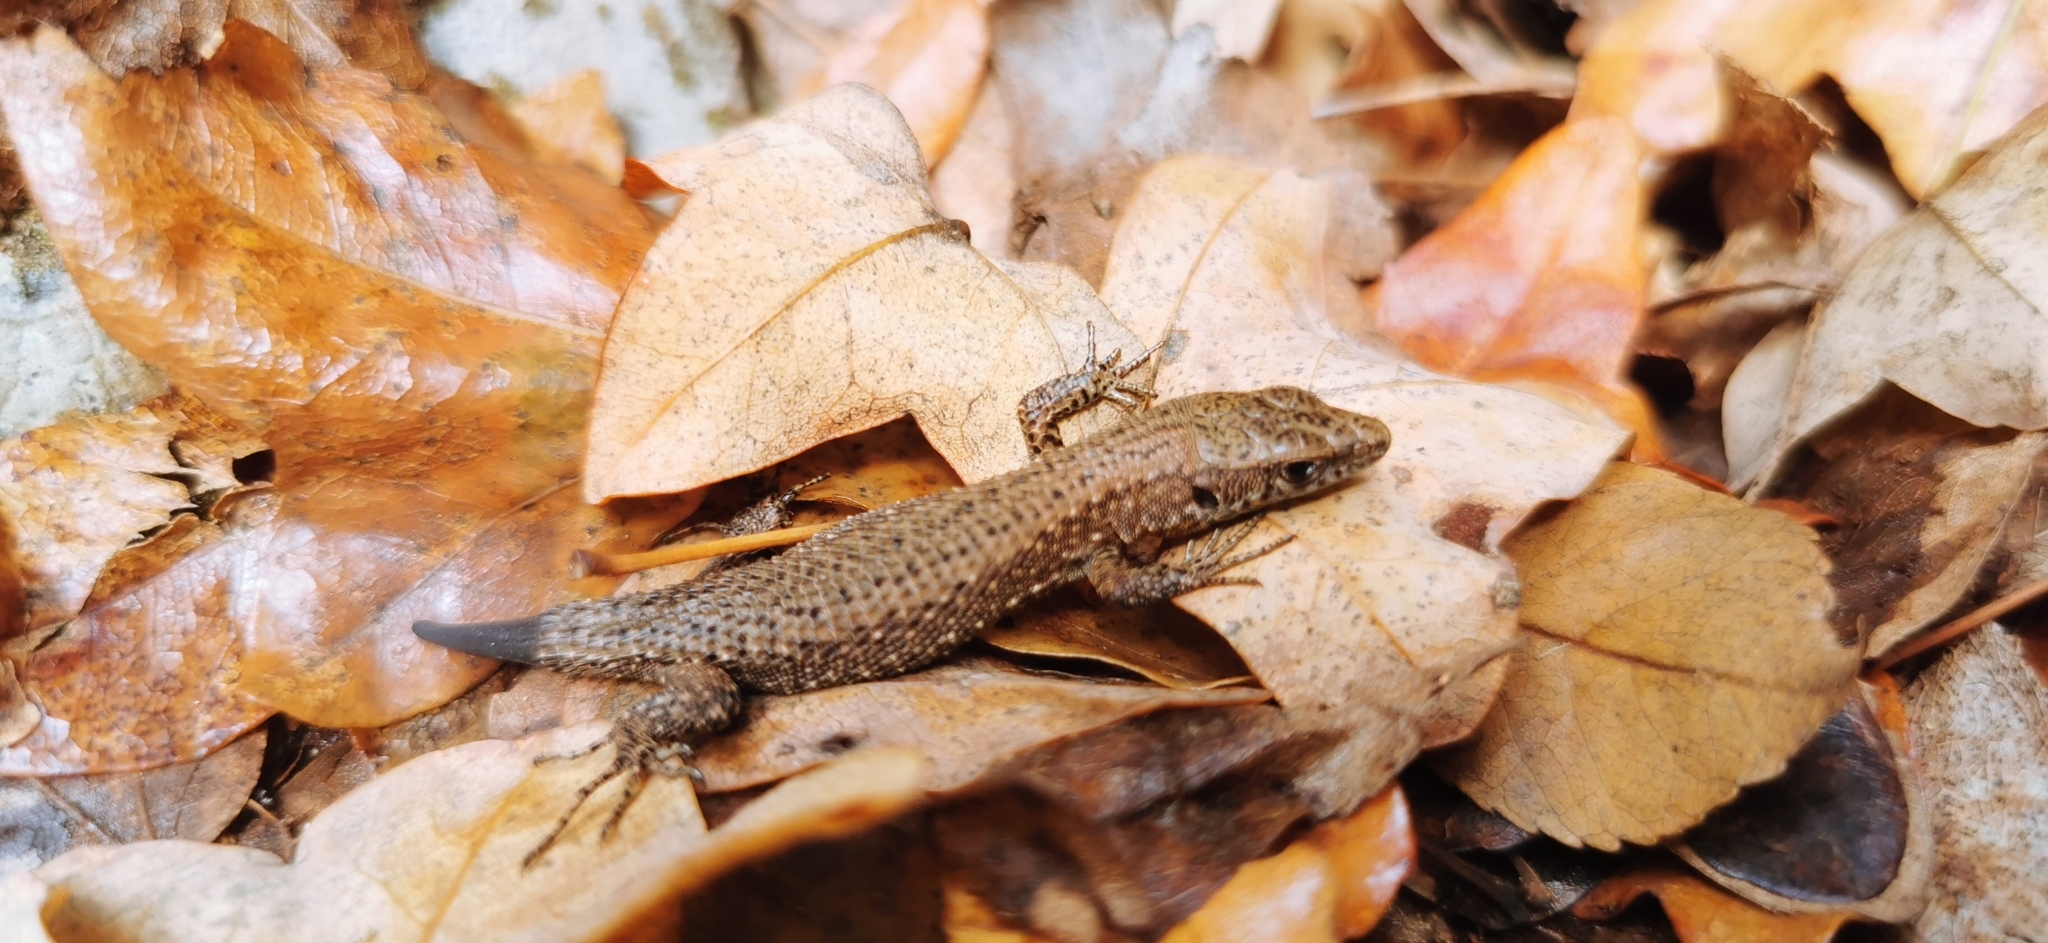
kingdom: Animalia
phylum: Chordata
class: Squamata
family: Lacertidae
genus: Algyroides
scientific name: Algyroides nigropunctatus
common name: Blue-throated keeled lizard
